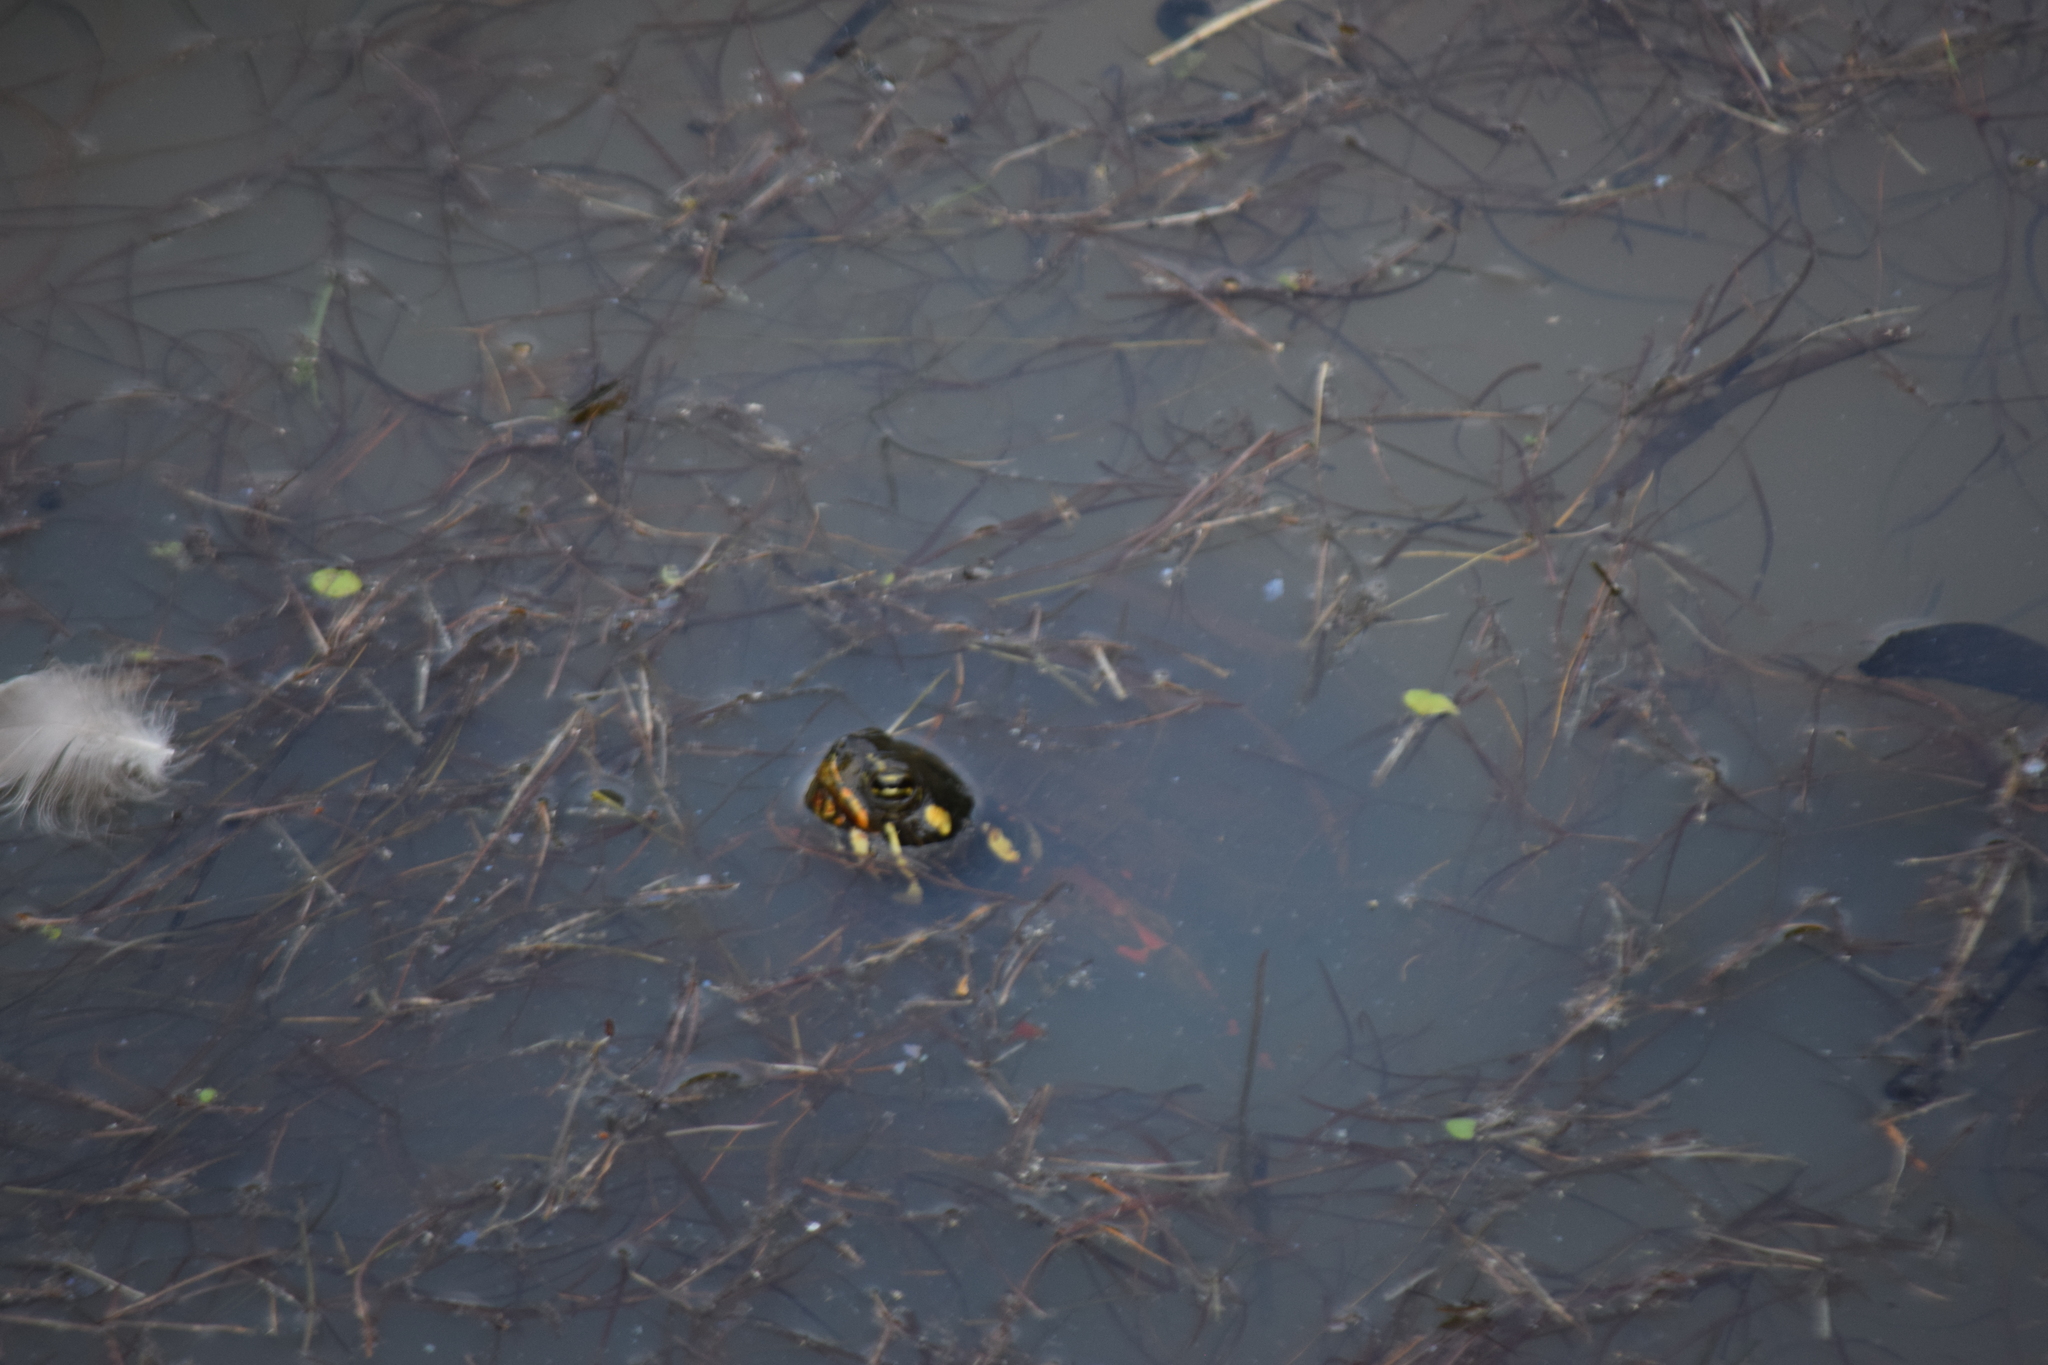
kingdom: Animalia
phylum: Chordata
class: Testudines
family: Emydidae
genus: Chrysemys
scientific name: Chrysemys picta
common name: Painted turtle
